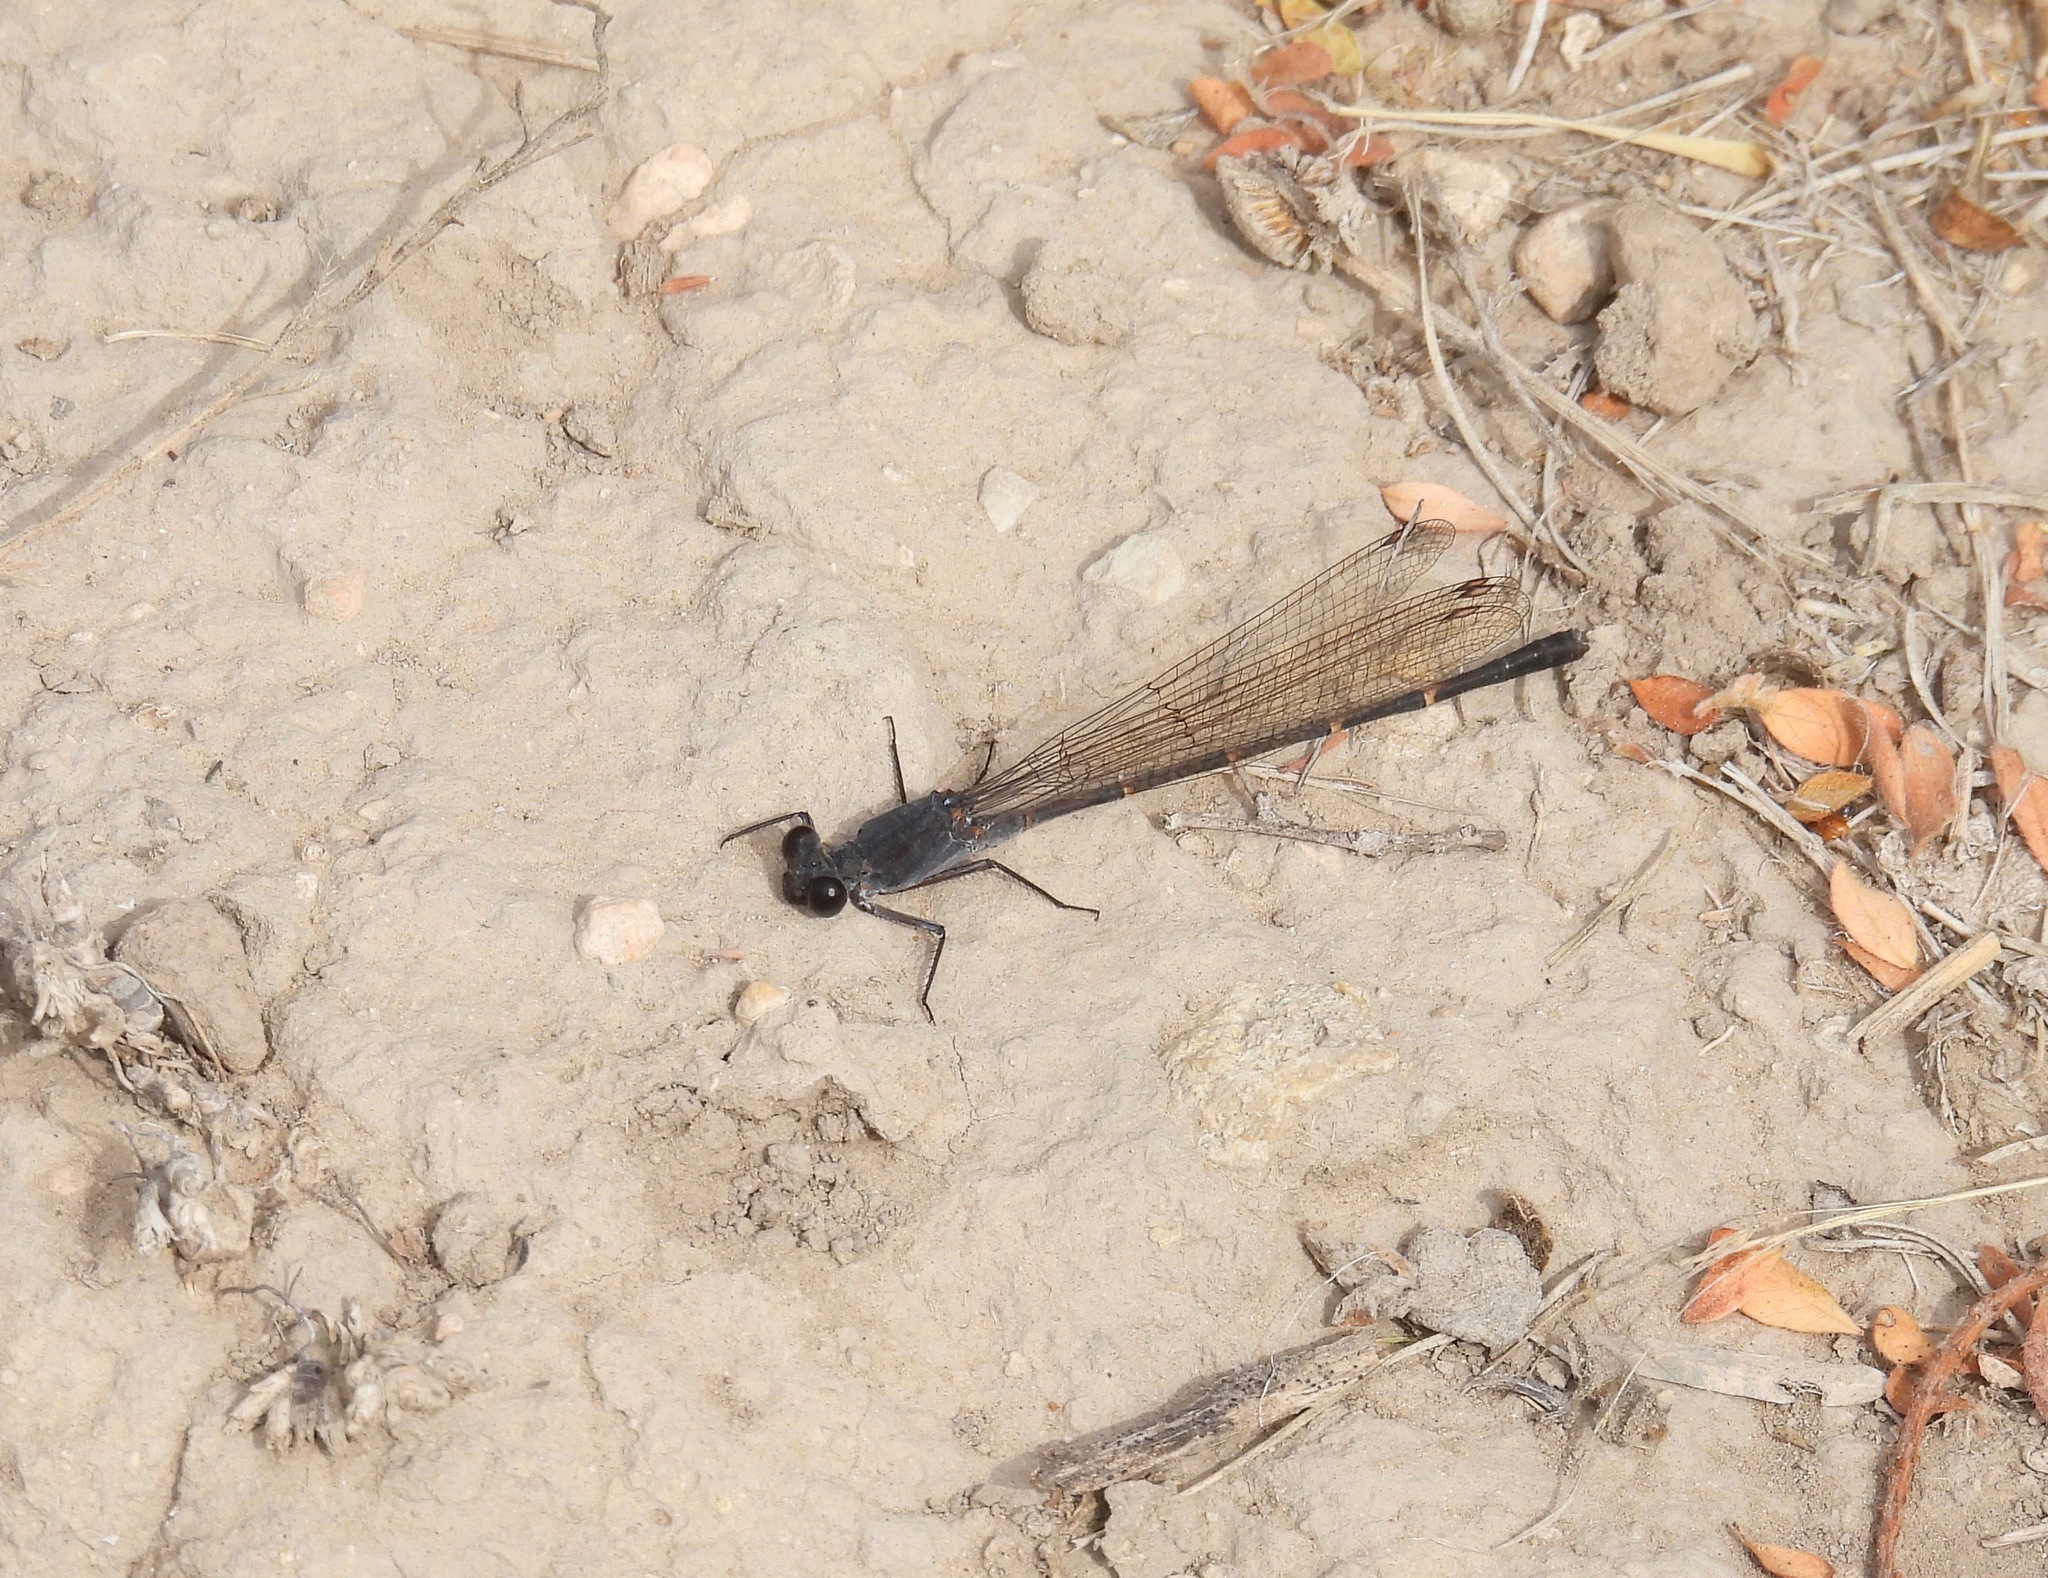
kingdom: Animalia
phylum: Arthropoda
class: Insecta
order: Odonata
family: Coenagrionidae
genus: Argia
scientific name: Argia lugens
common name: Sooty dancer
